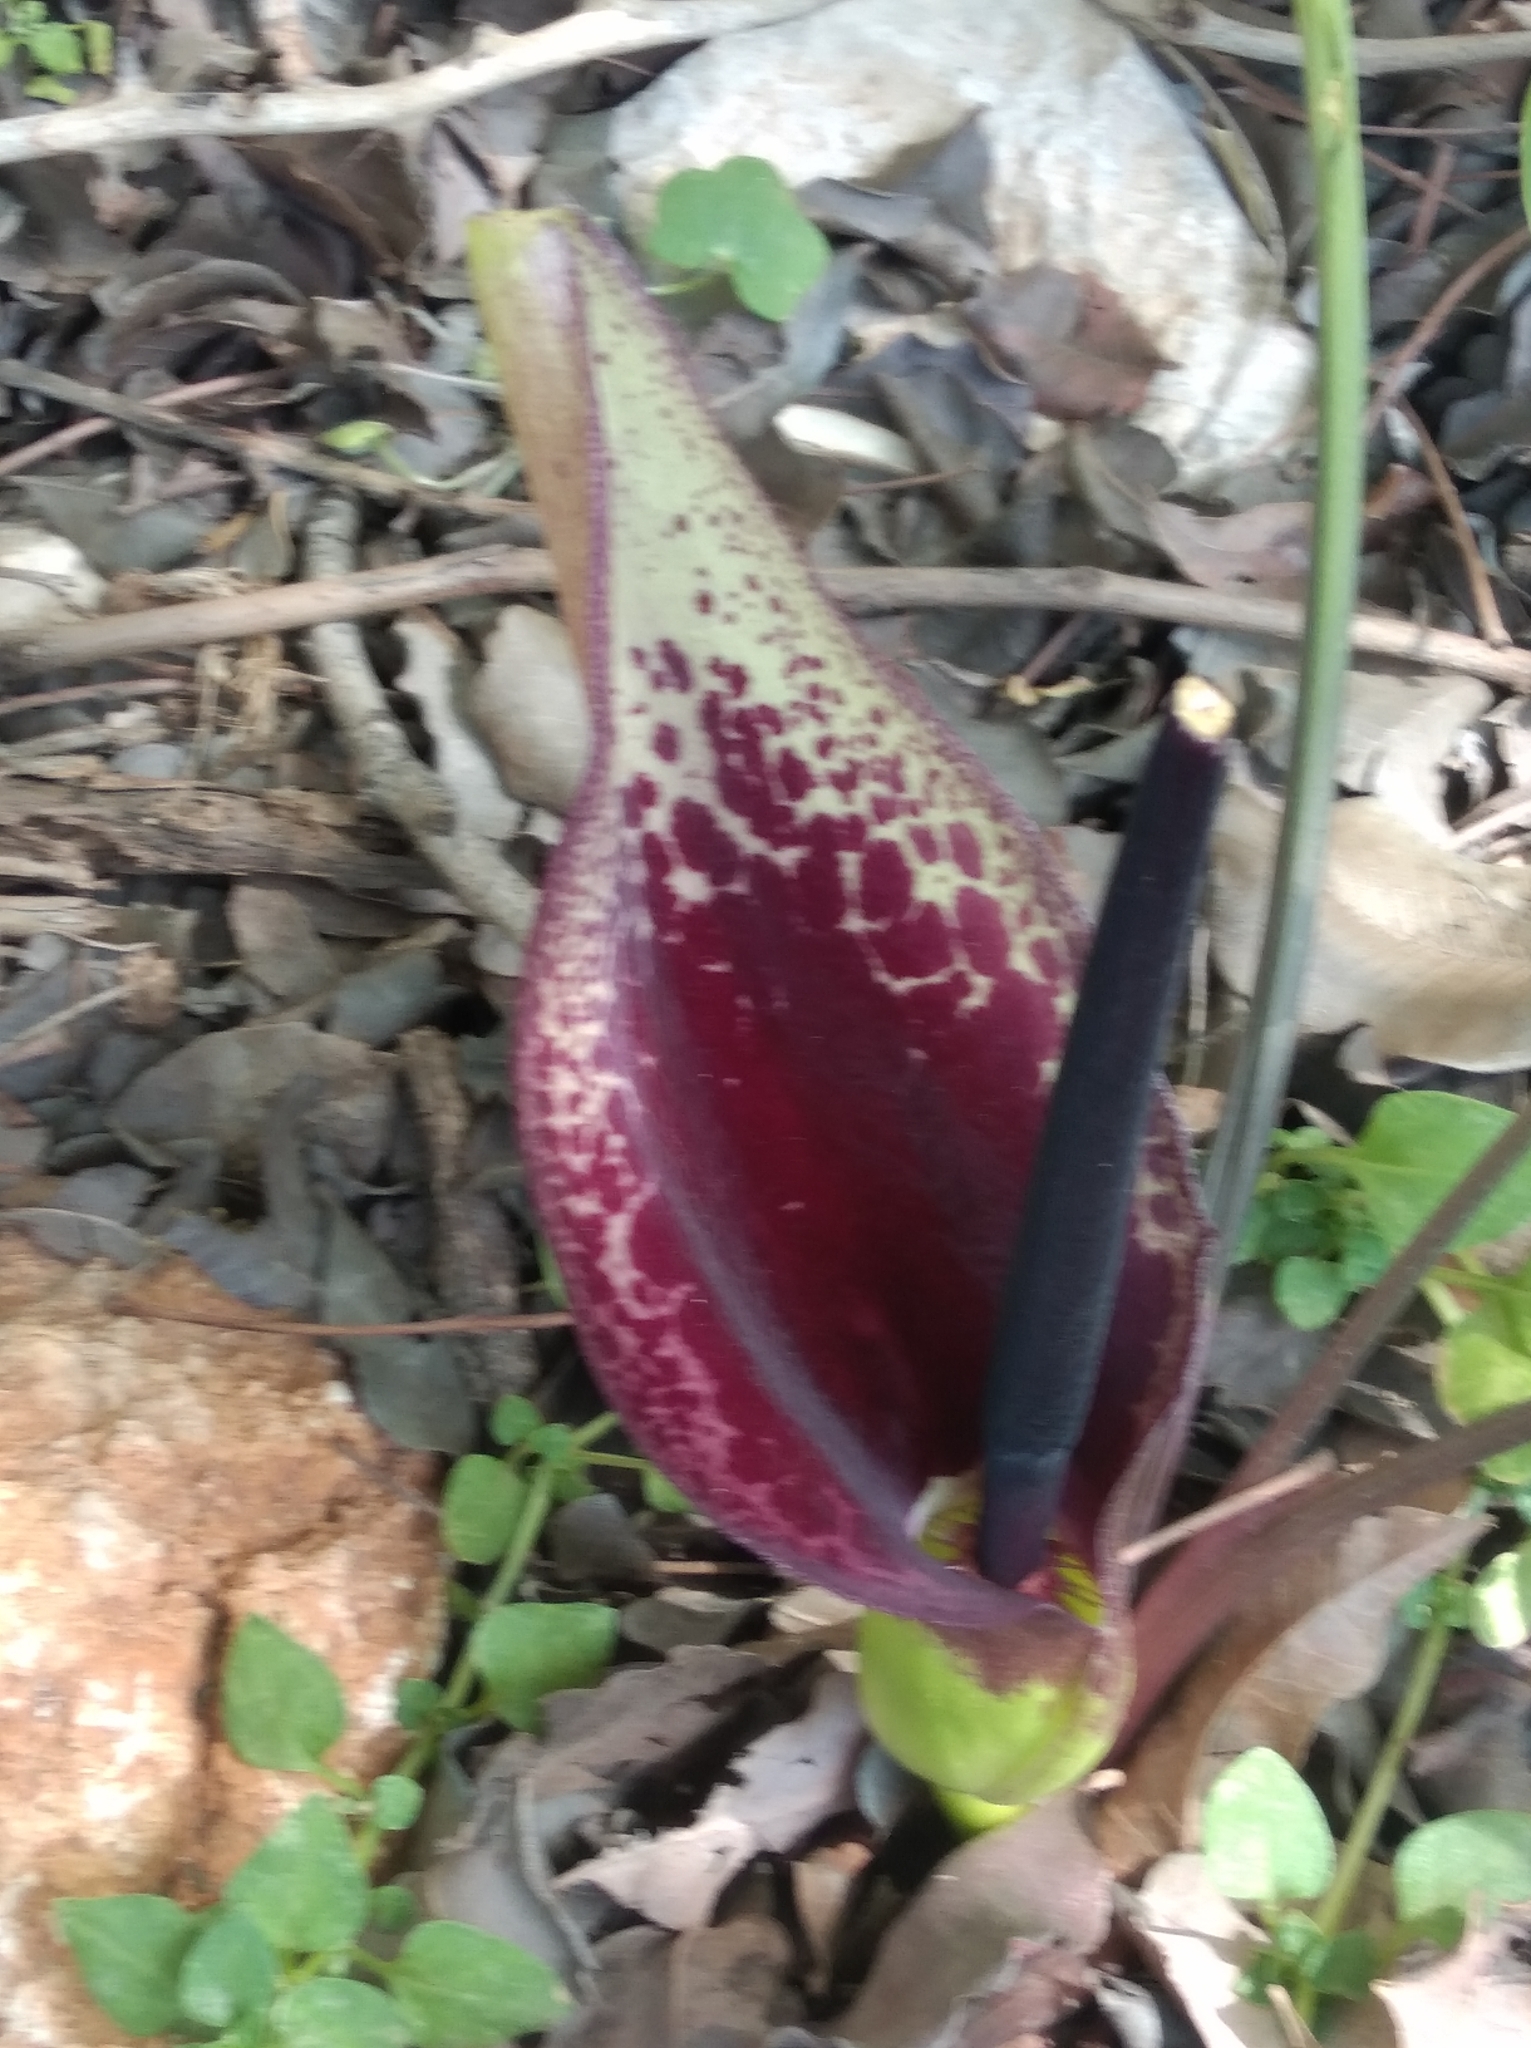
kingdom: Plantae
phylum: Tracheophyta
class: Liliopsida
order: Alismatales
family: Araceae
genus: Arum
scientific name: Arum dioscoridis
